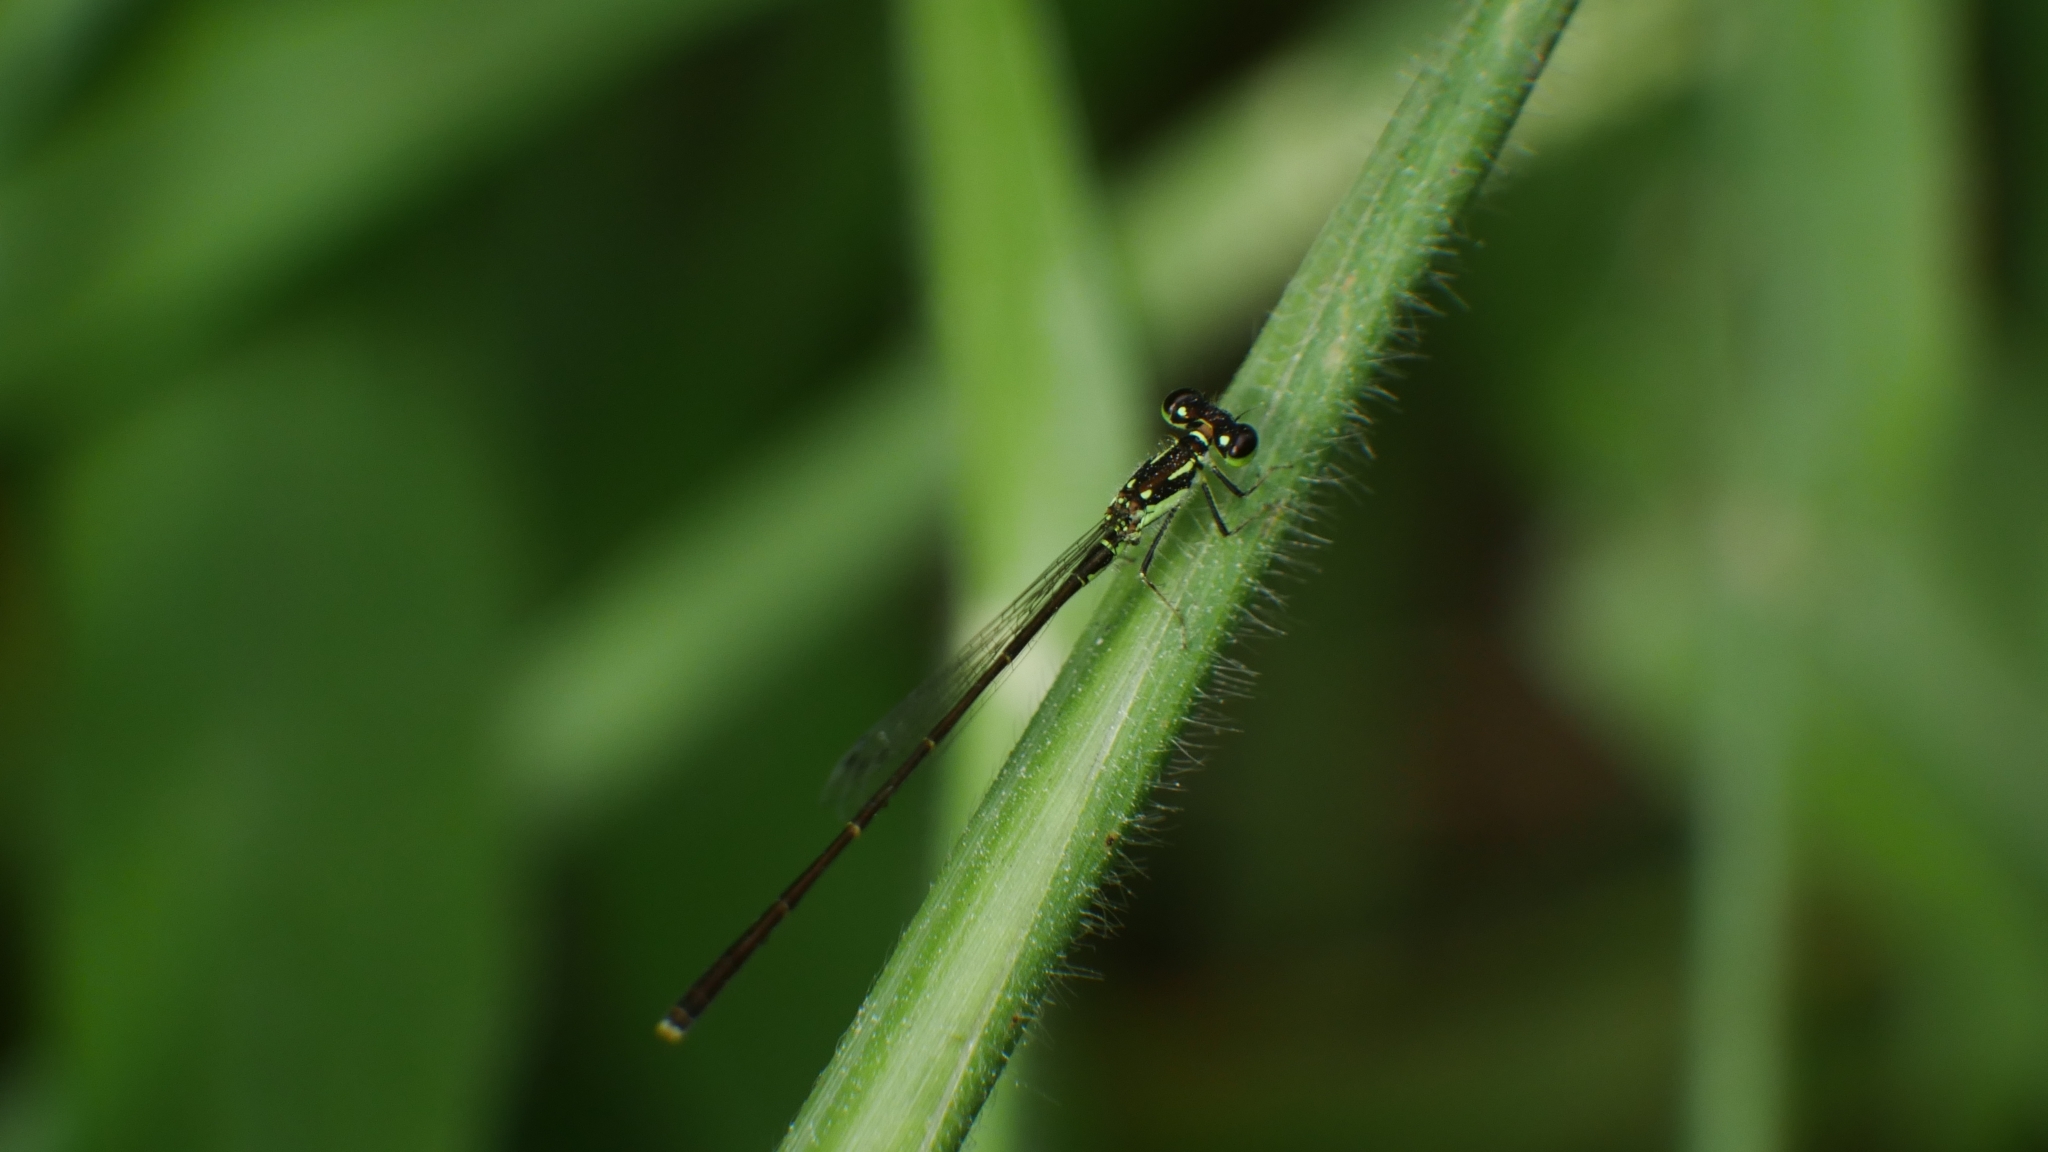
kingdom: Animalia
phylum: Arthropoda
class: Insecta
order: Odonata
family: Coenagrionidae
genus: Ischnura
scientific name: Ischnura posita
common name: Fragile forktail
